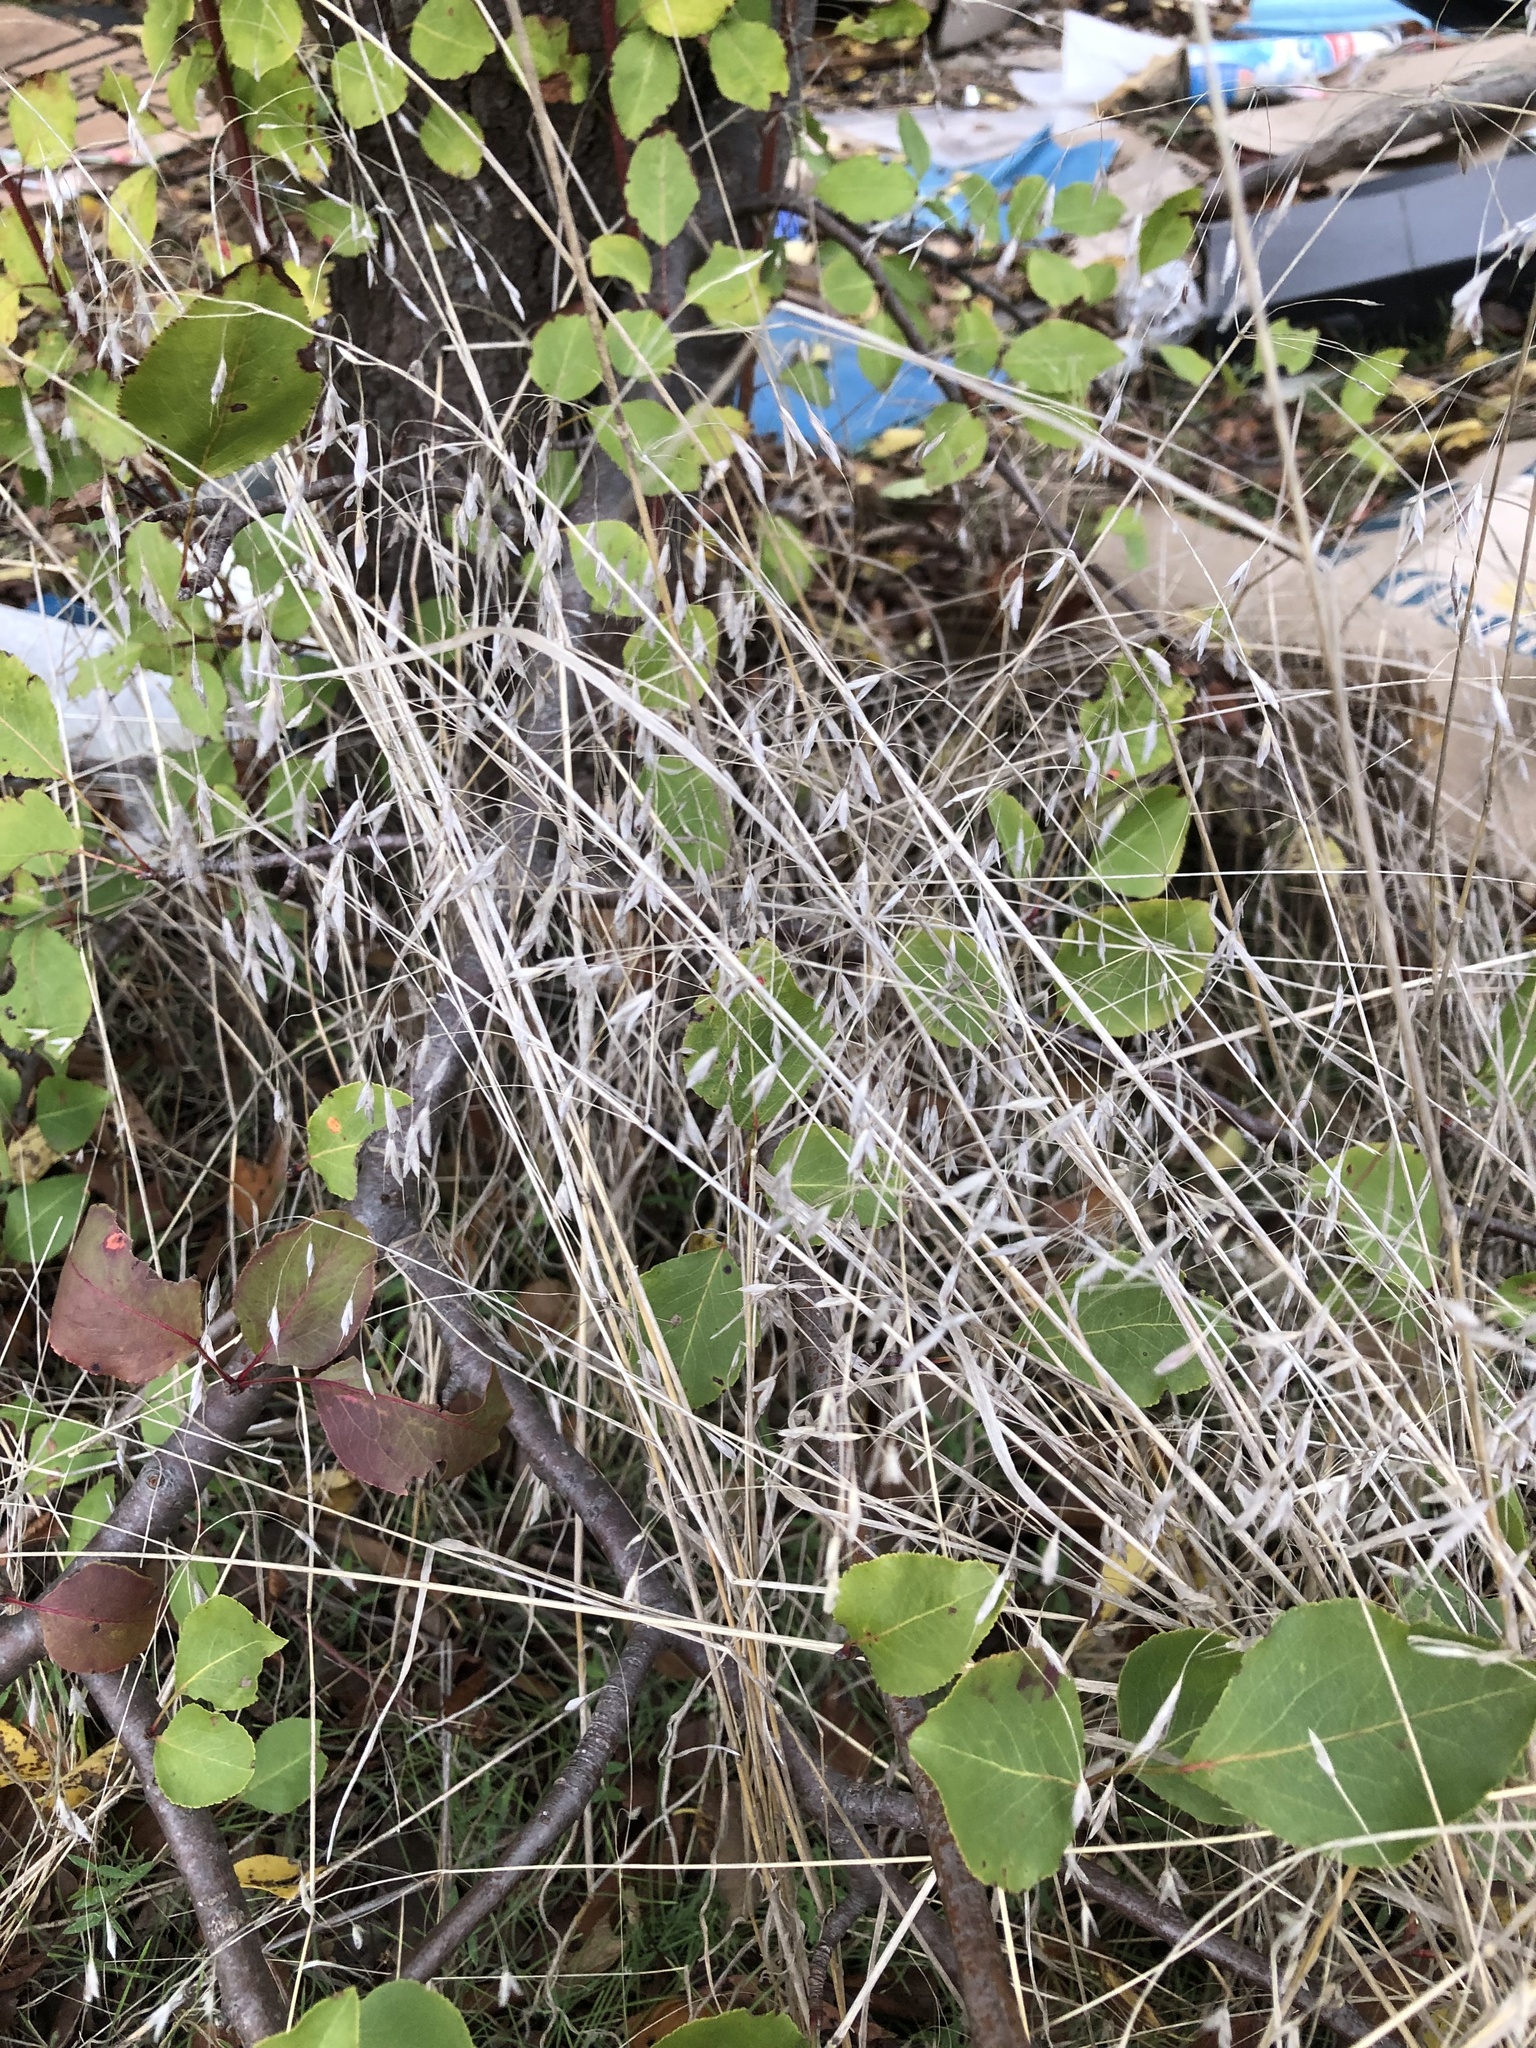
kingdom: Plantae
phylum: Tracheophyta
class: Liliopsida
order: Poales
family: Poaceae
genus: Bromus
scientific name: Bromus japonicus
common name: Japanese brome
